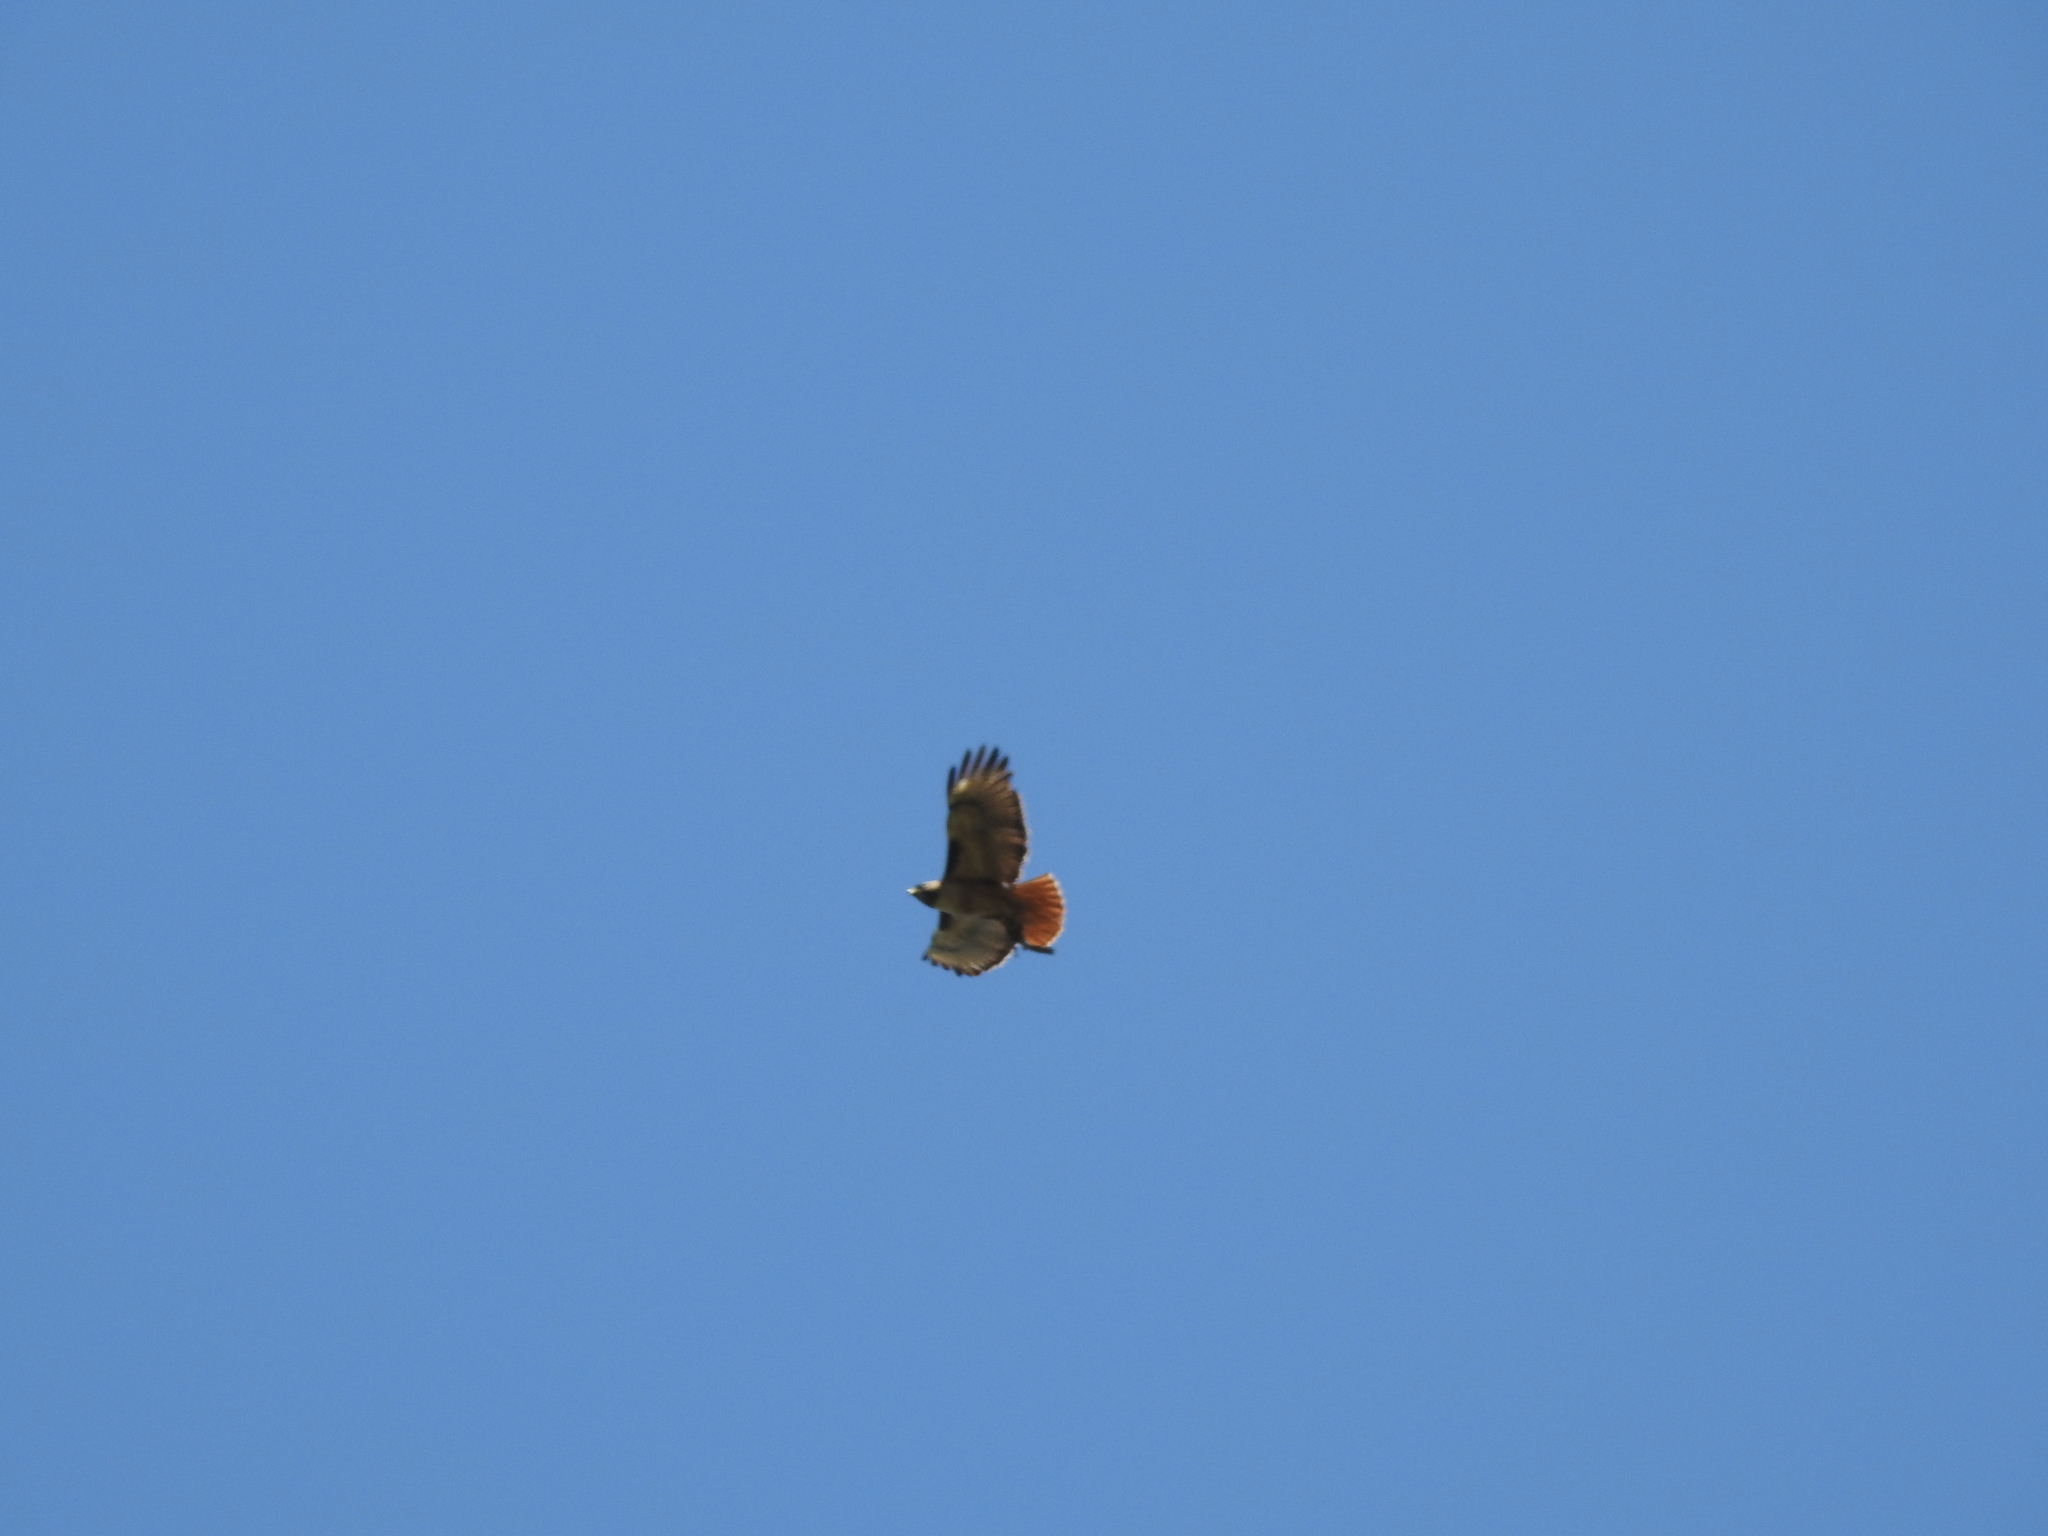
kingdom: Animalia
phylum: Chordata
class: Aves
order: Accipitriformes
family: Accipitridae
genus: Buteo
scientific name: Buteo jamaicensis
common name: Red-tailed hawk
